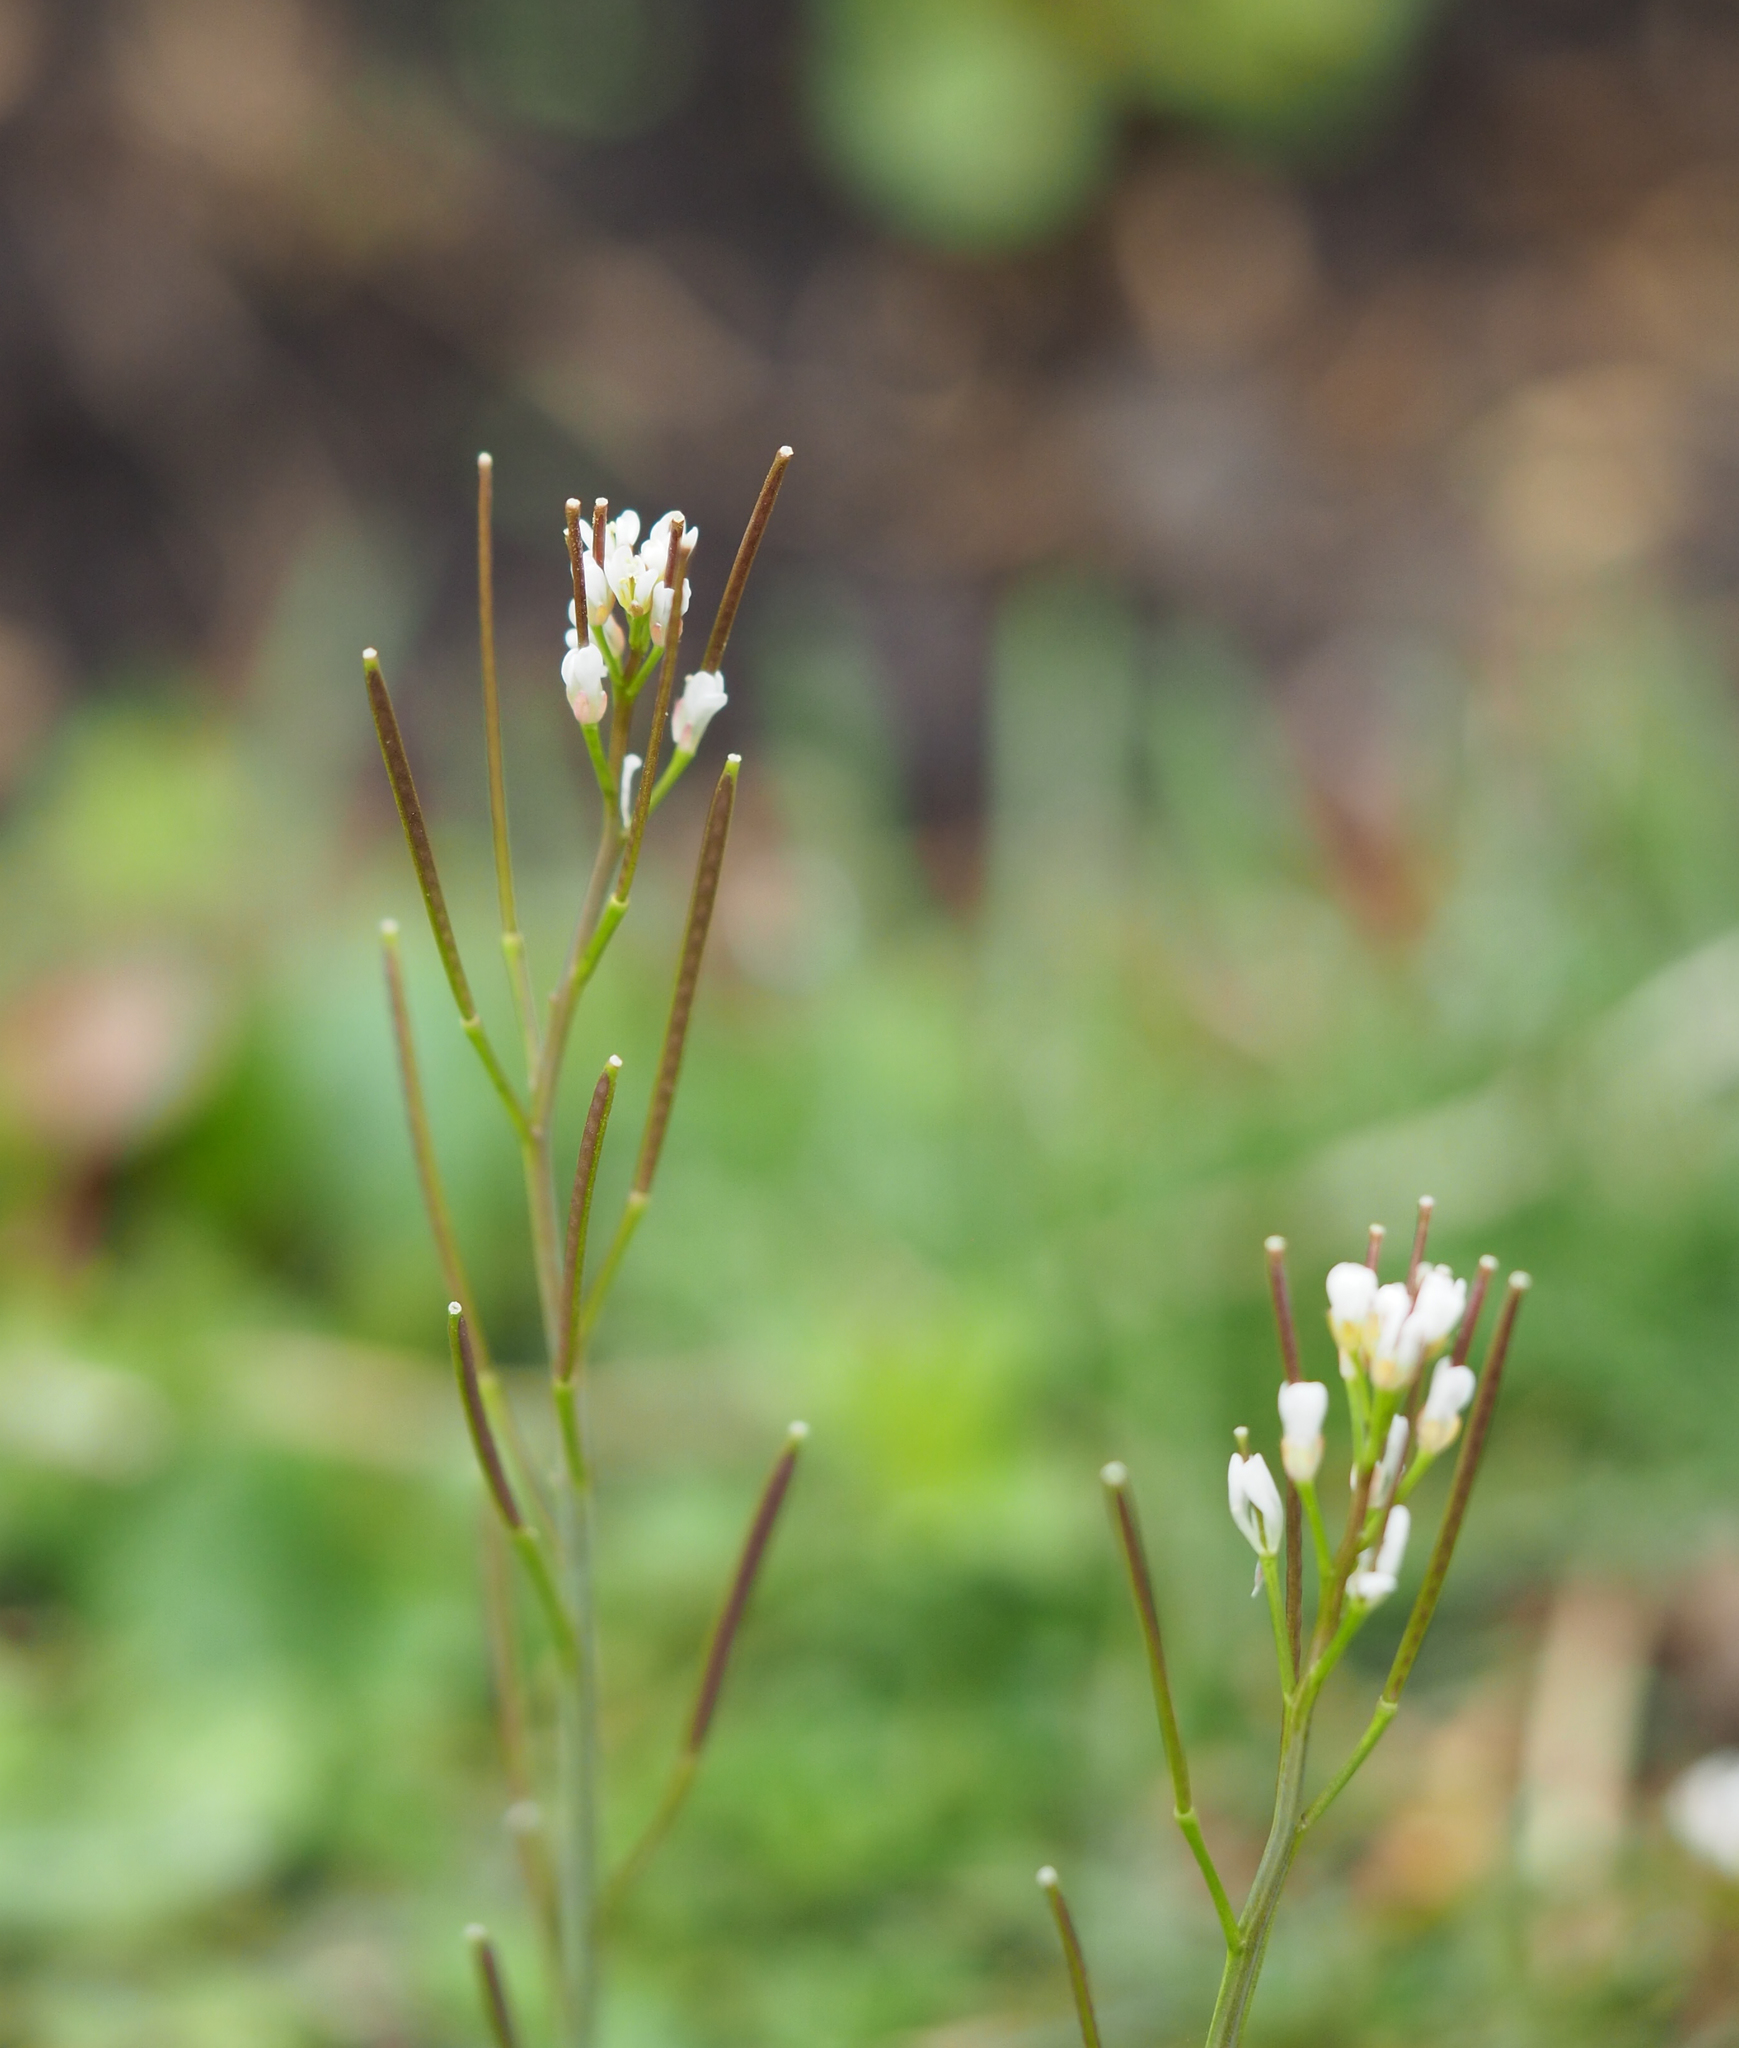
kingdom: Plantae
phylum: Tracheophyta
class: Magnoliopsida
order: Brassicales
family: Brassicaceae
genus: Cardamine
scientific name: Cardamine hirsuta
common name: Hairy bittercress
